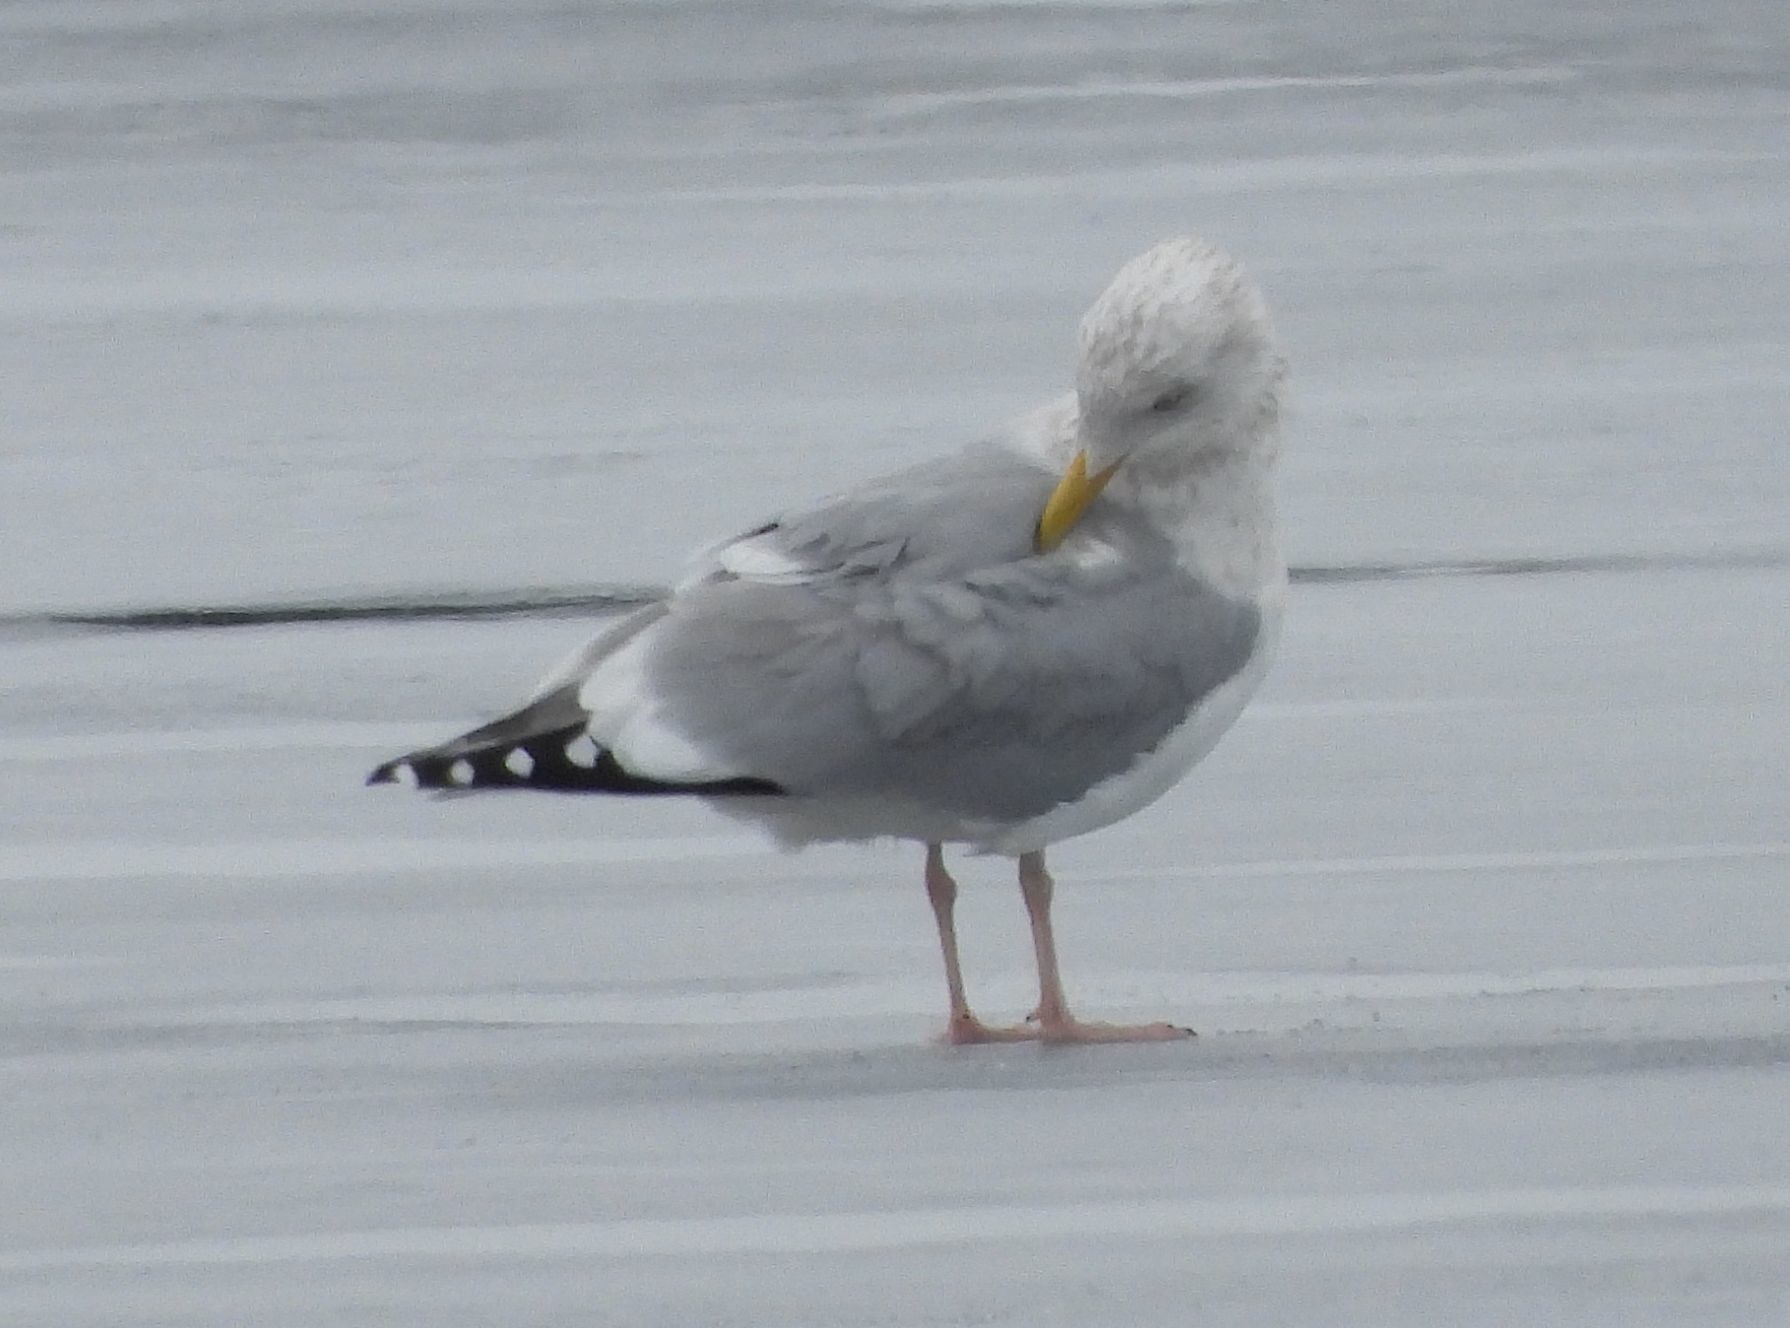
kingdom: Animalia
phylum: Chordata
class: Aves
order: Charadriiformes
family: Laridae
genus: Larus
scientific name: Larus argentatus
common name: Herring gull
